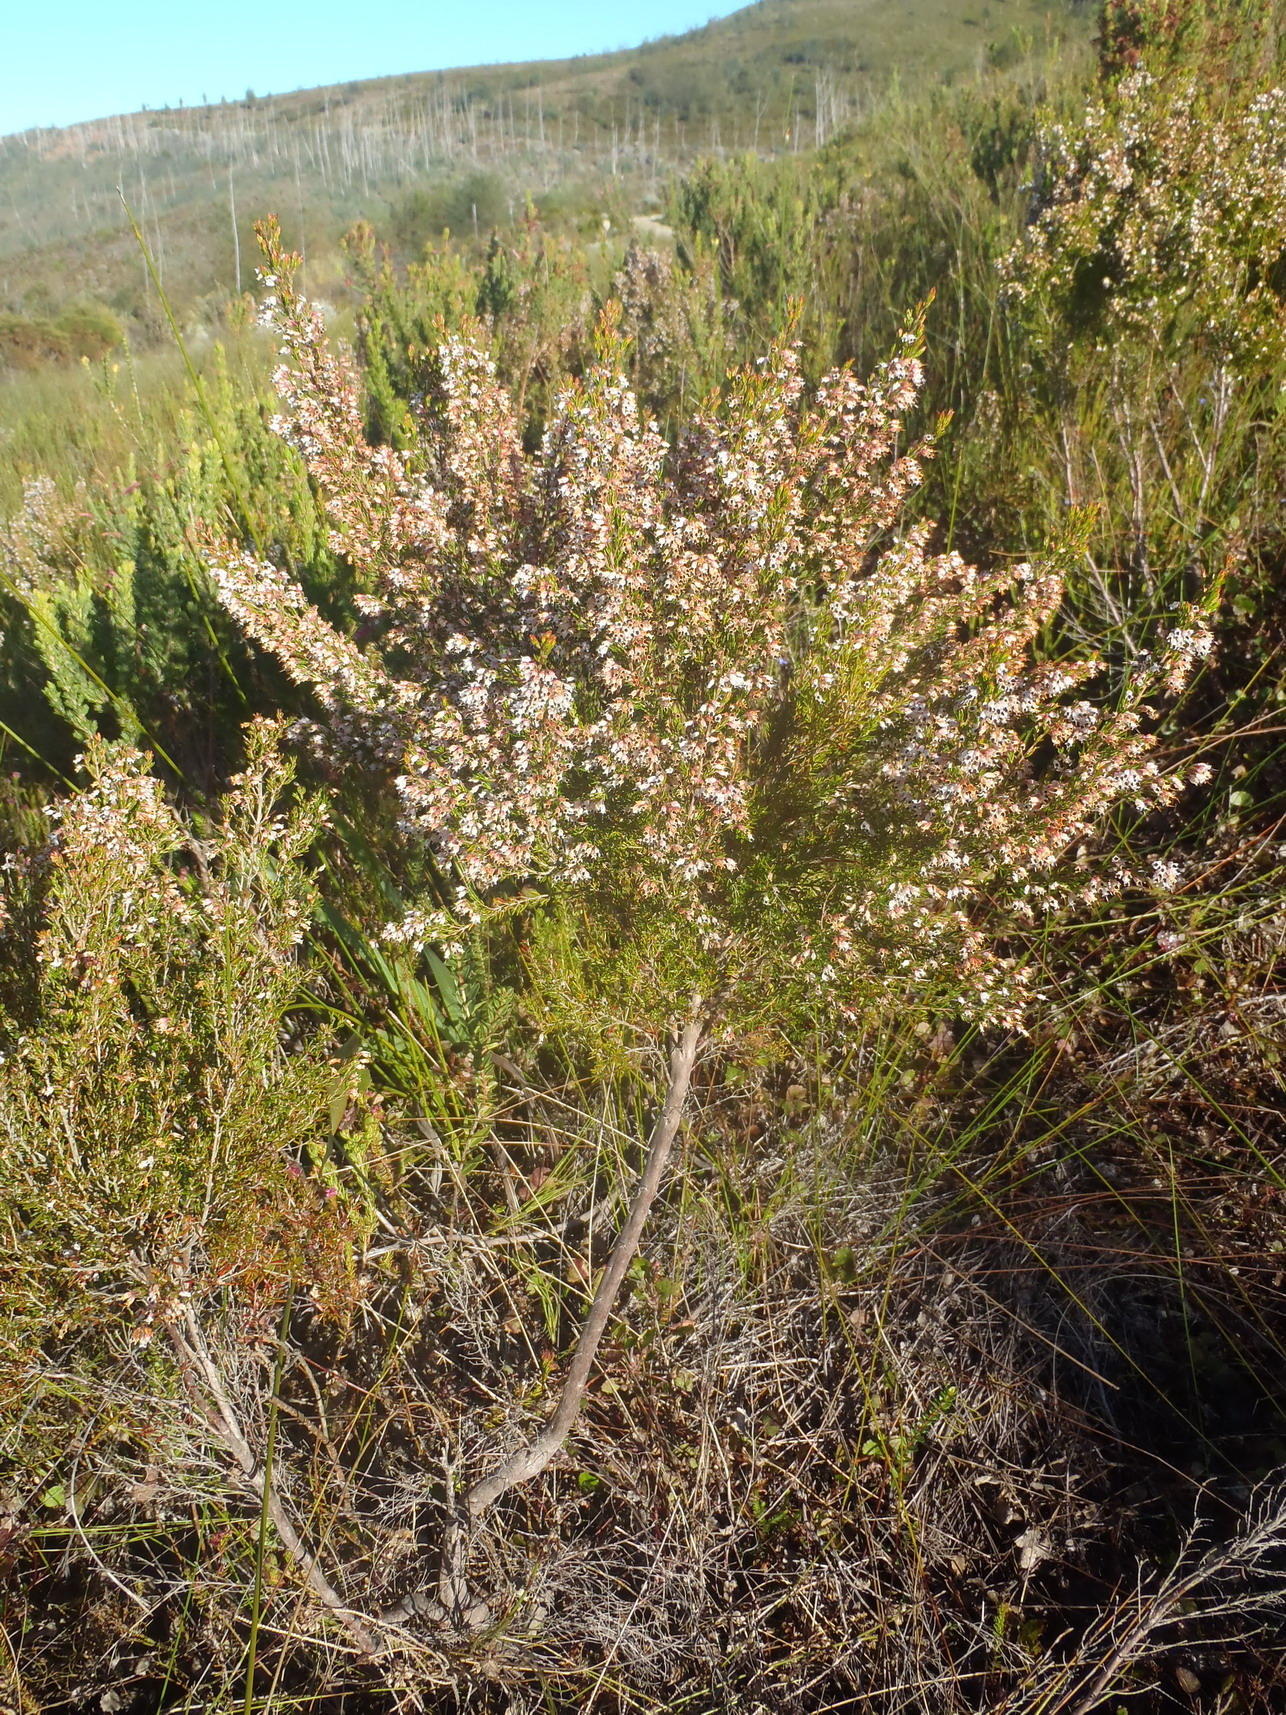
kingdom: Plantae
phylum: Tracheophyta
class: Magnoliopsida
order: Ericales
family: Ericaceae
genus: Erica
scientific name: Erica fuscescens
